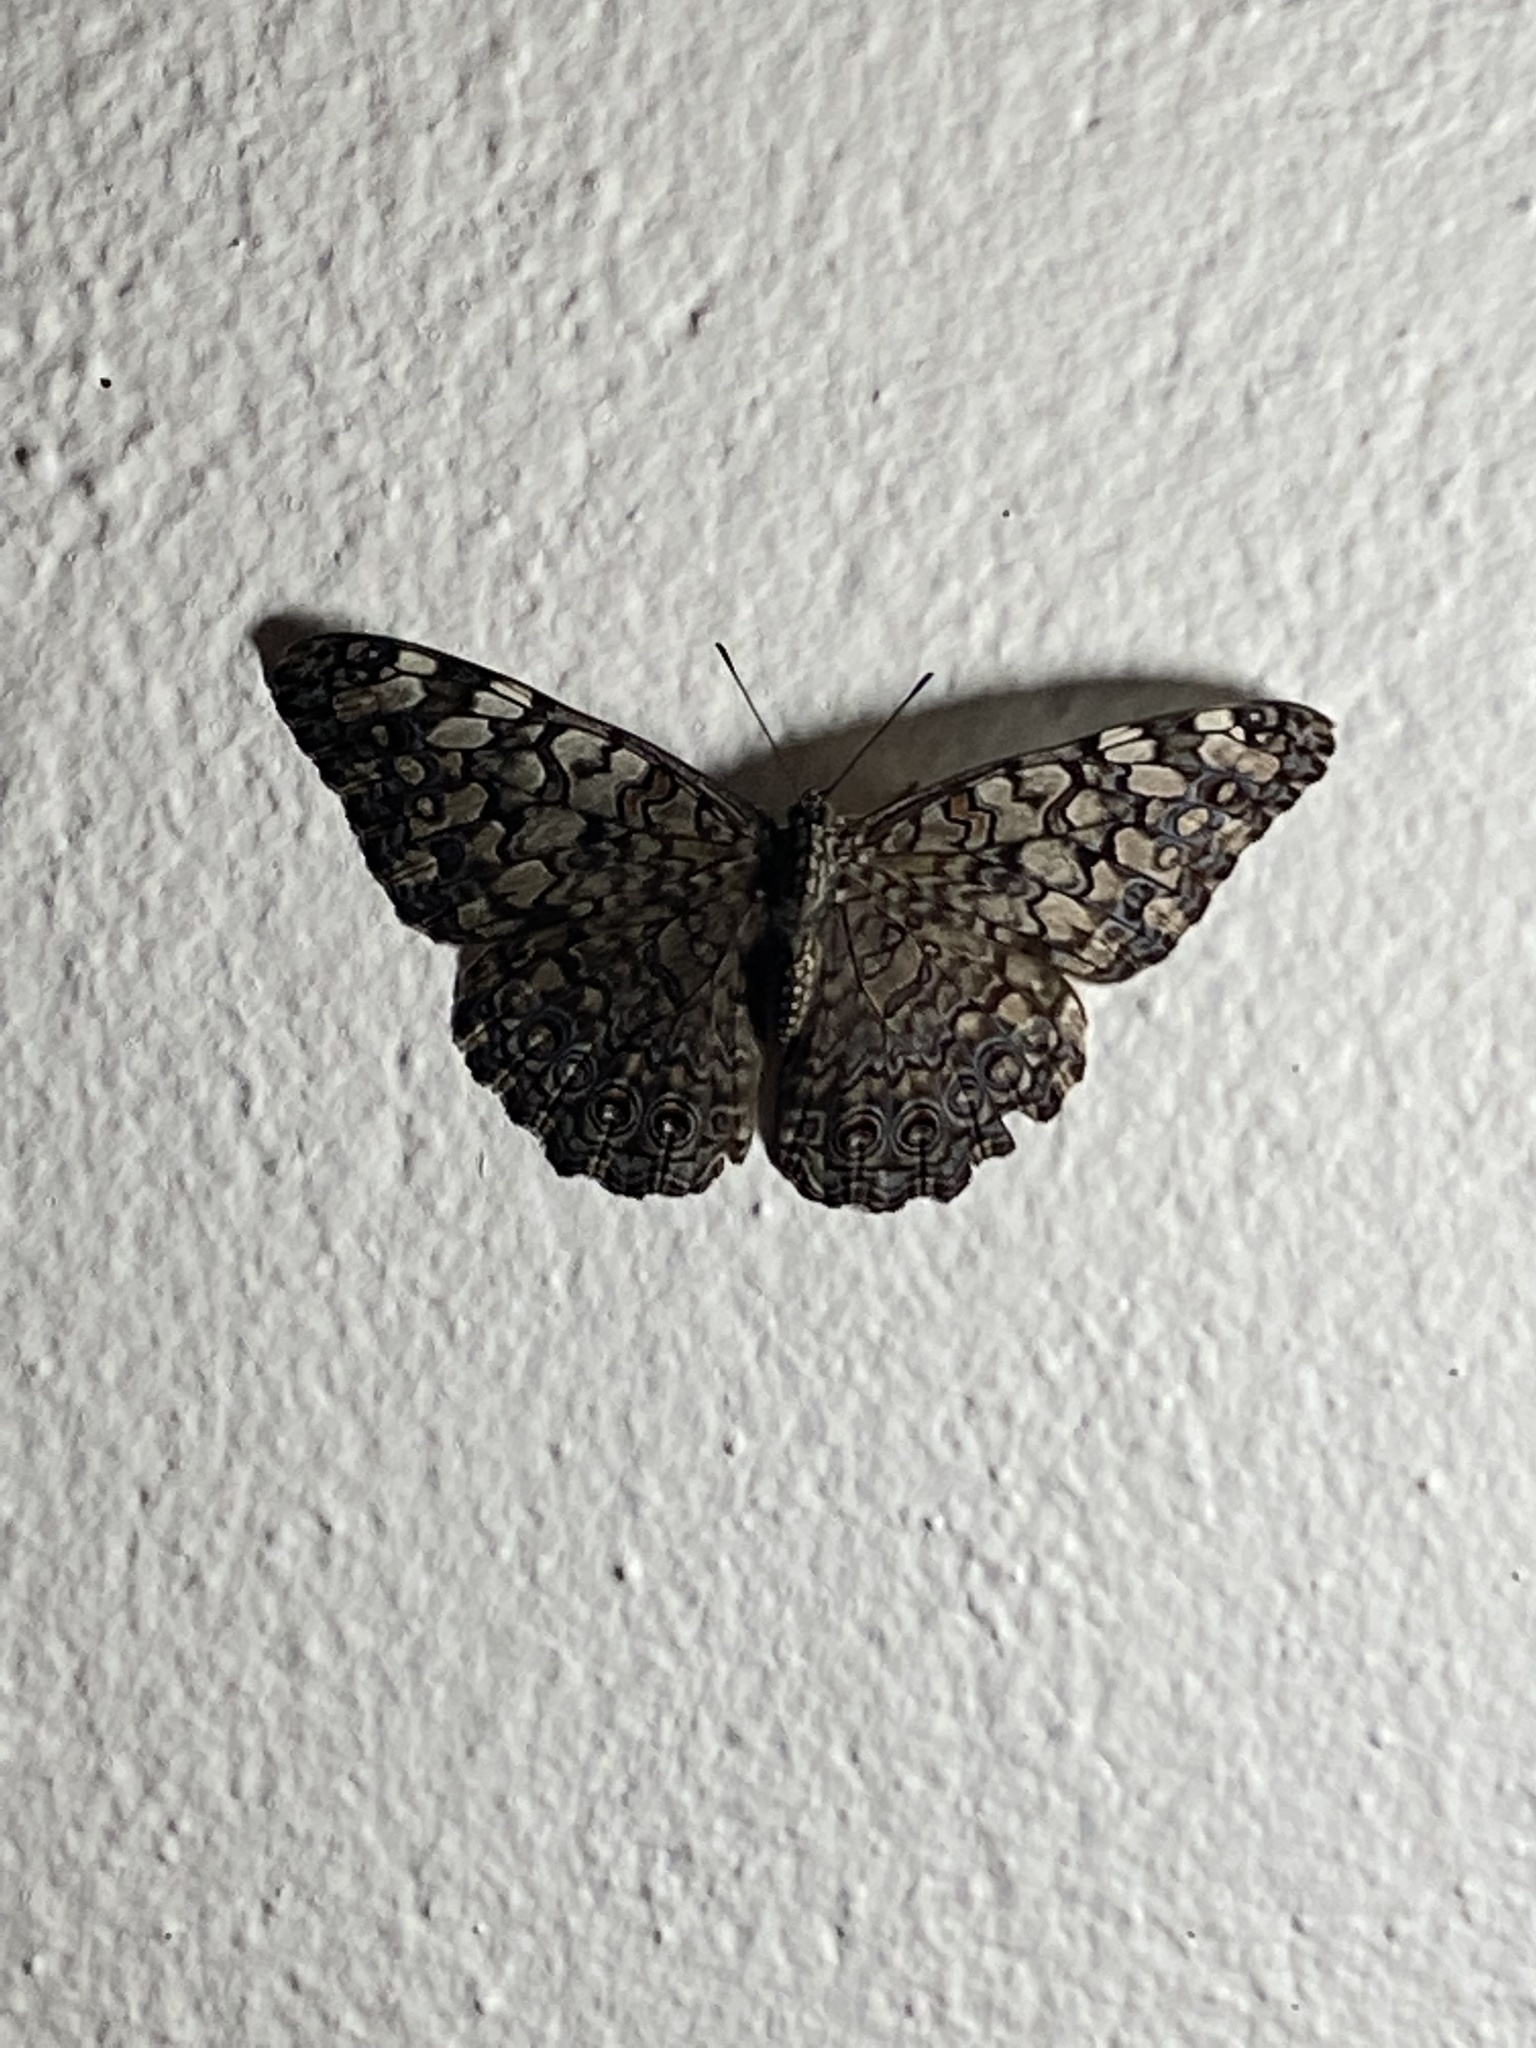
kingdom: Animalia
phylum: Arthropoda
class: Insecta
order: Lepidoptera
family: Nymphalidae
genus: Hamadryas
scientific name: Hamadryas februa
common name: Gray cracker
